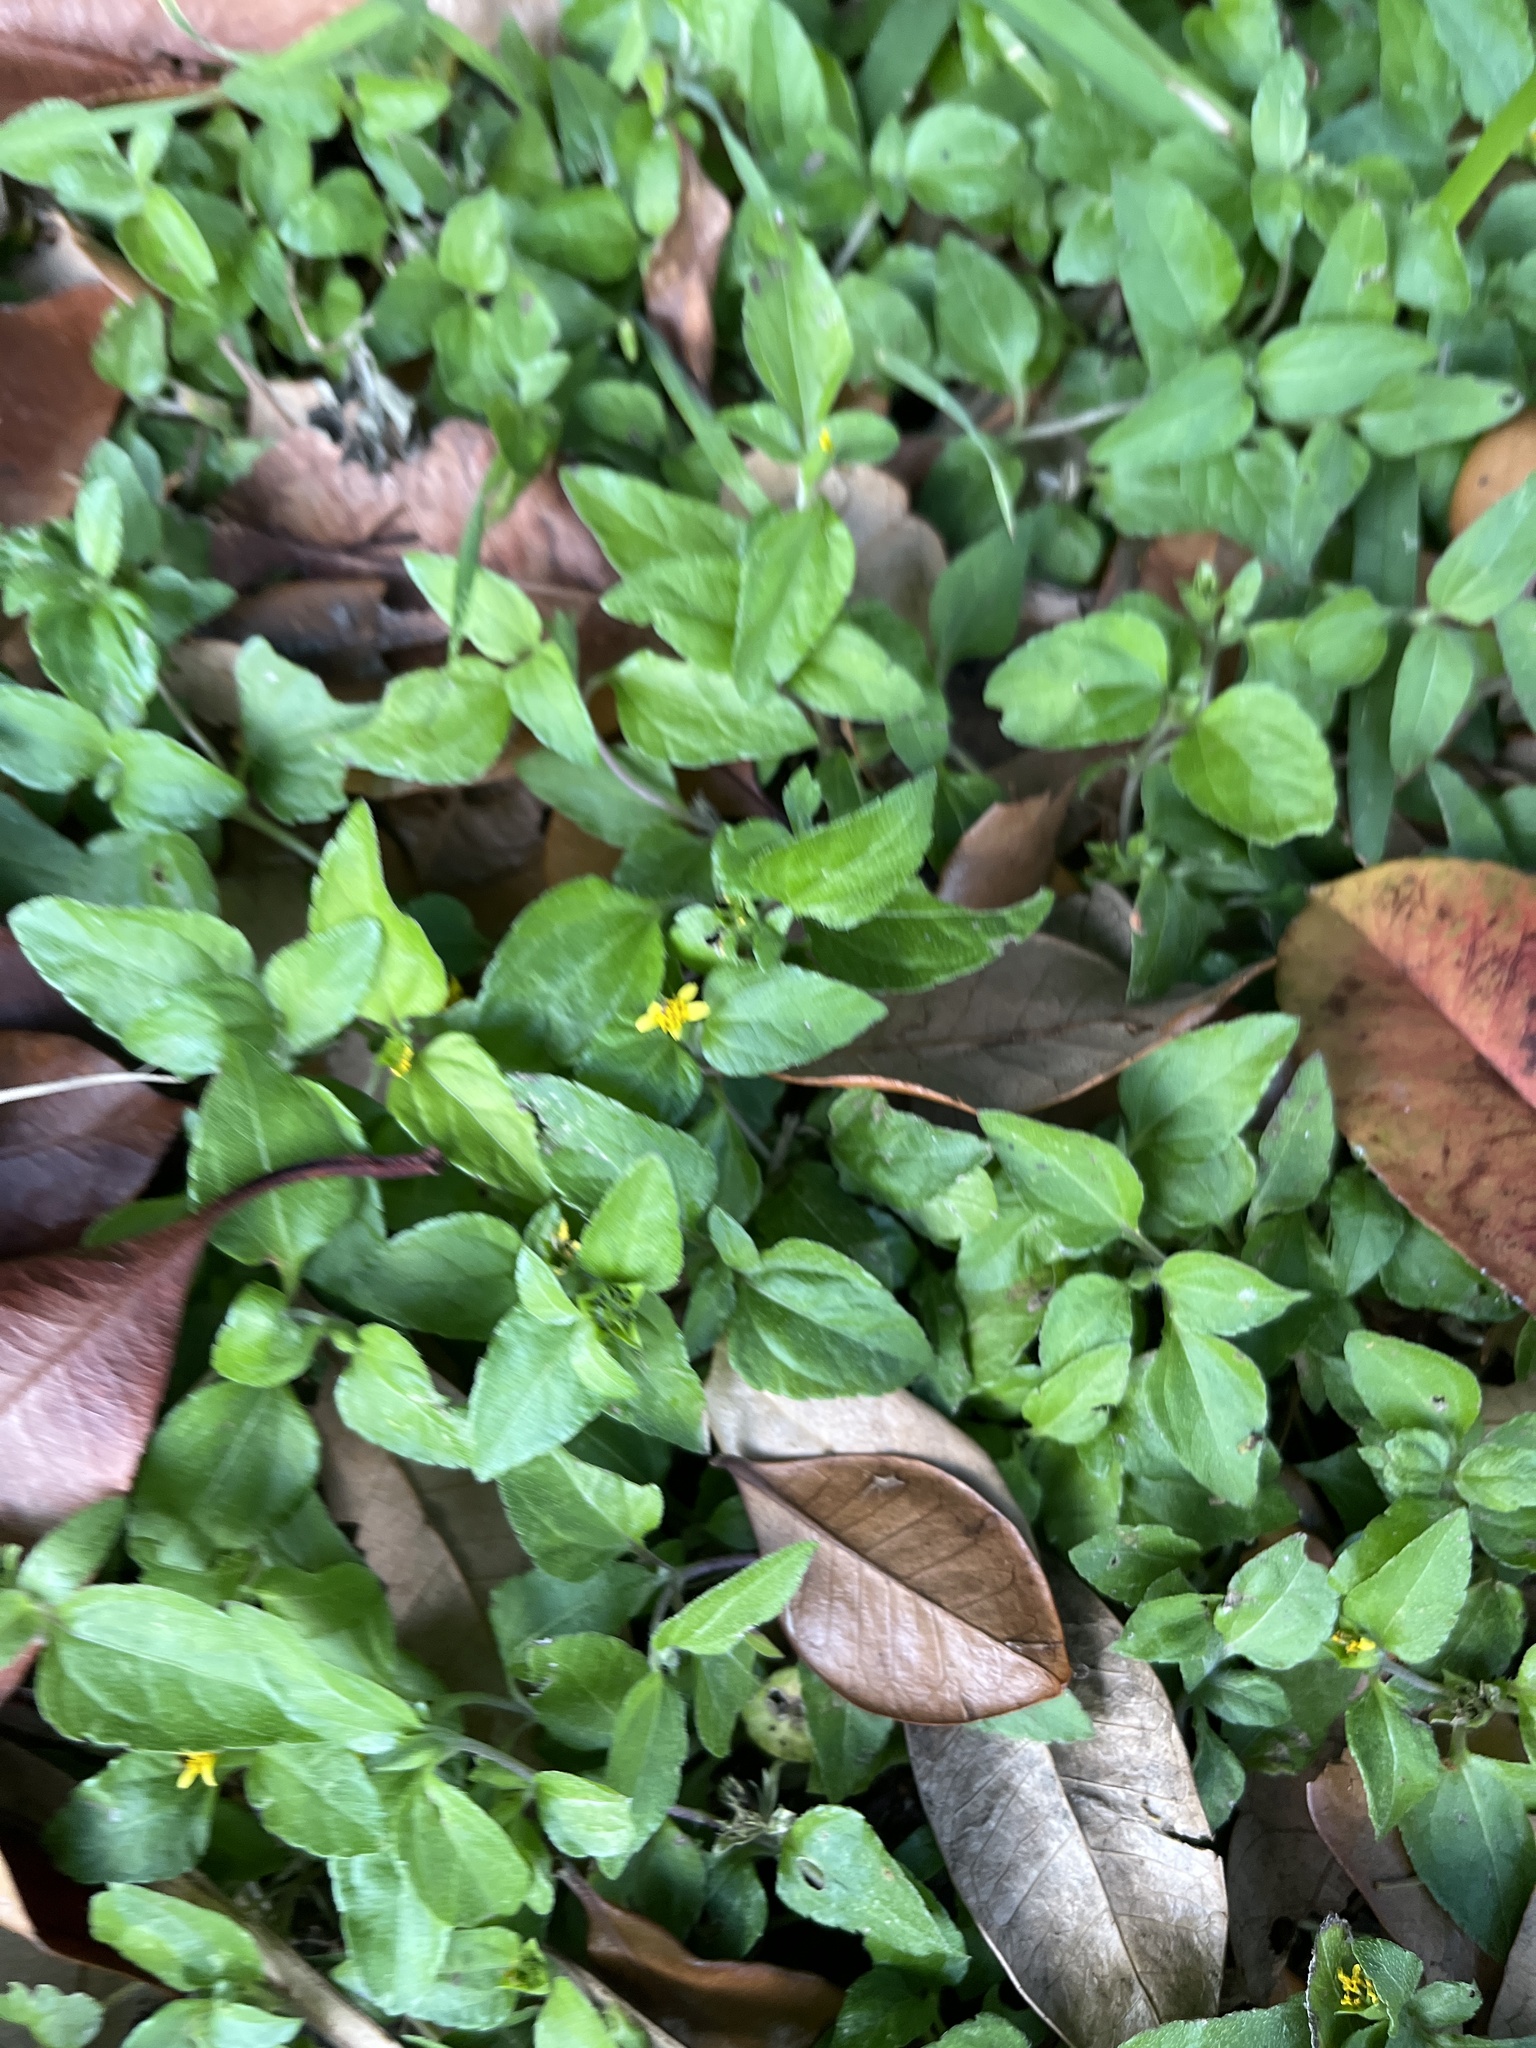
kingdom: Plantae
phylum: Tracheophyta
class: Magnoliopsida
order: Asterales
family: Asteraceae
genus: Calyptocarpus
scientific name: Calyptocarpus vialis
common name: Straggler daisy
